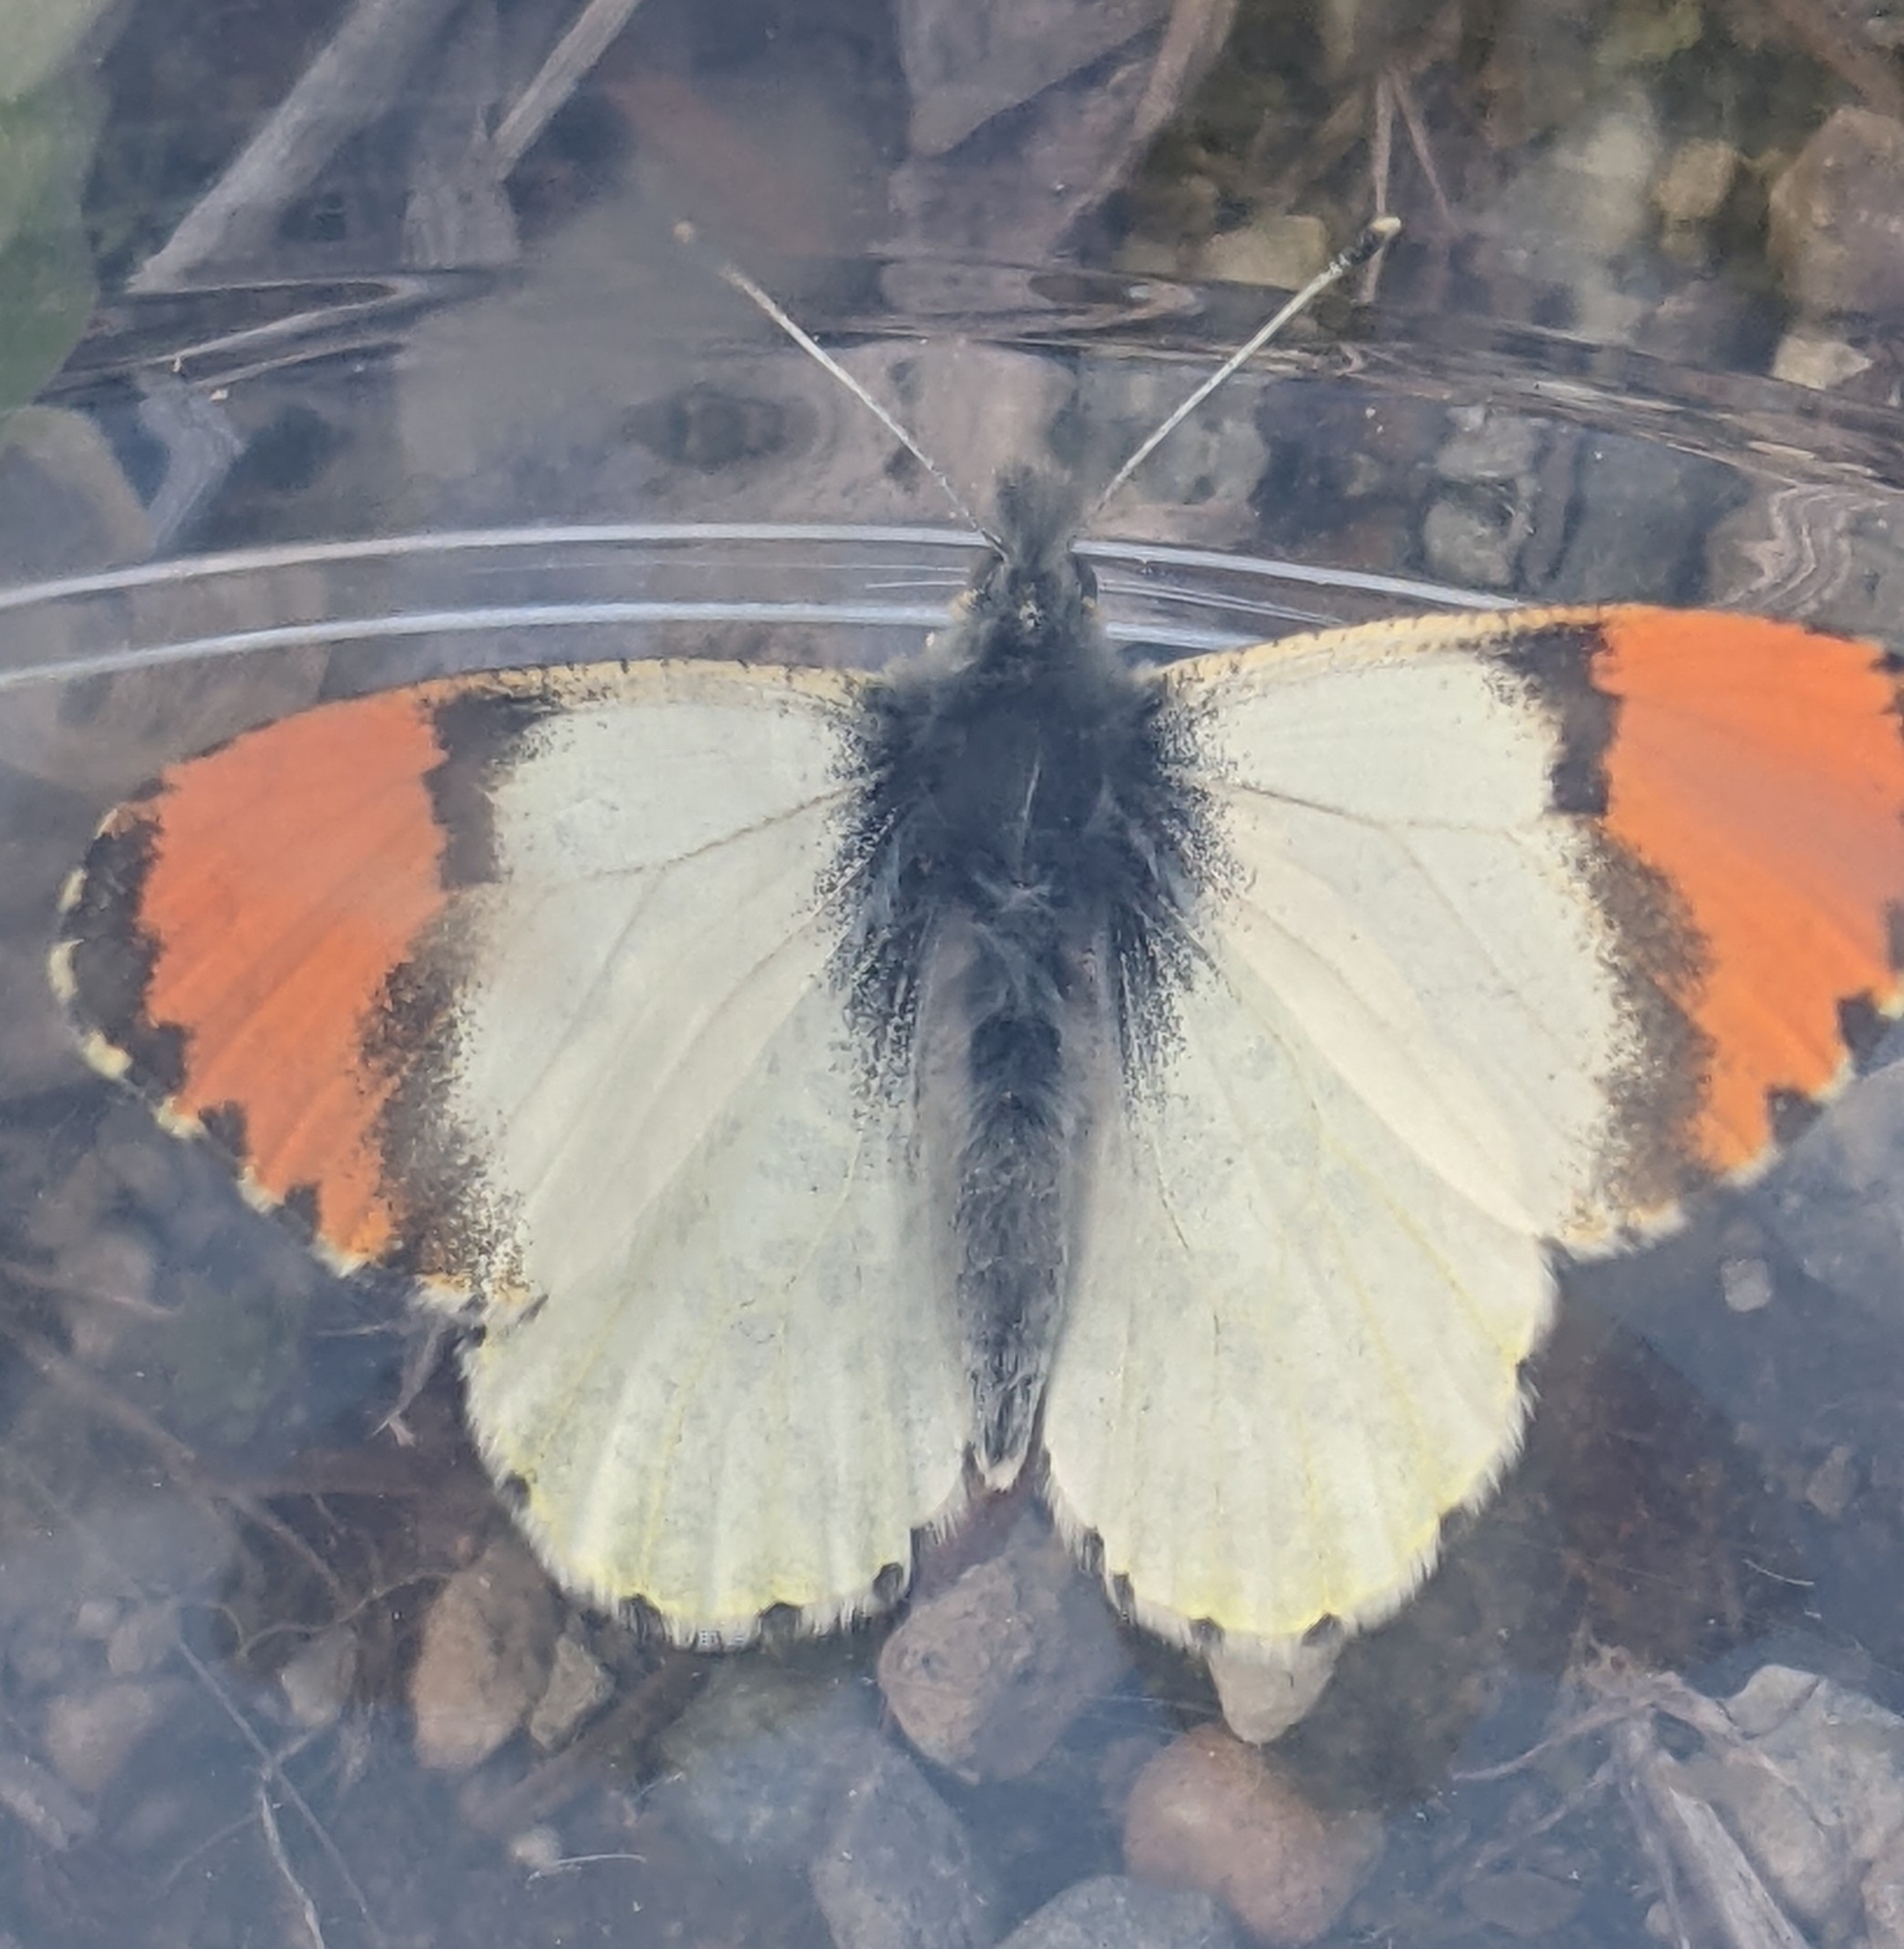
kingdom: Animalia
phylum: Arthropoda
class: Insecta
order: Lepidoptera
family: Pieridae
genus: Anthocharis
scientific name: Anthocharis julia
